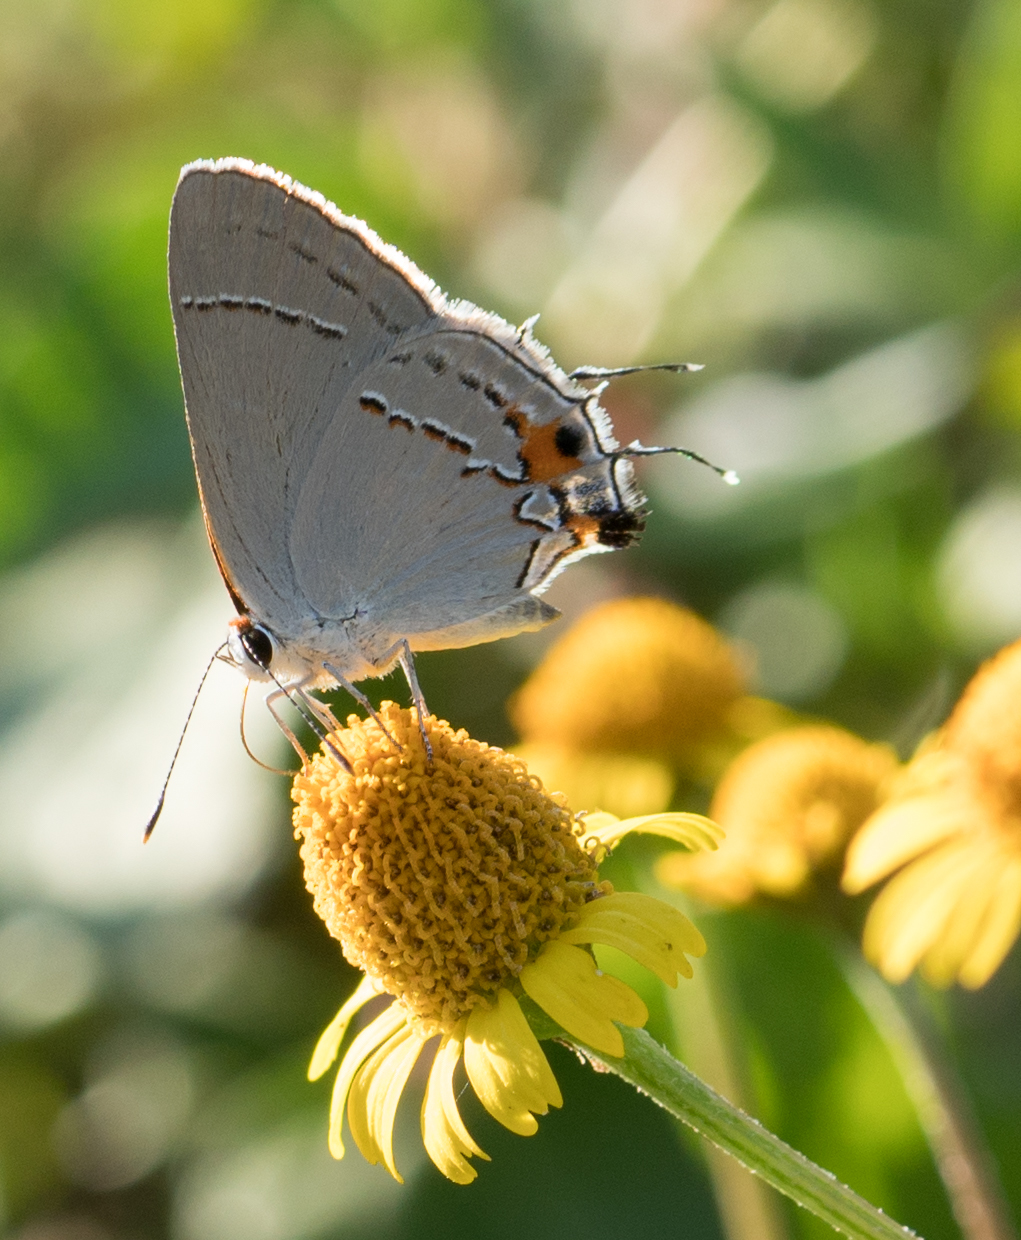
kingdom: Animalia
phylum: Arthropoda
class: Insecta
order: Lepidoptera
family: Lycaenidae
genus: Strymon
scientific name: Strymon melinus
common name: Gray hairstreak
